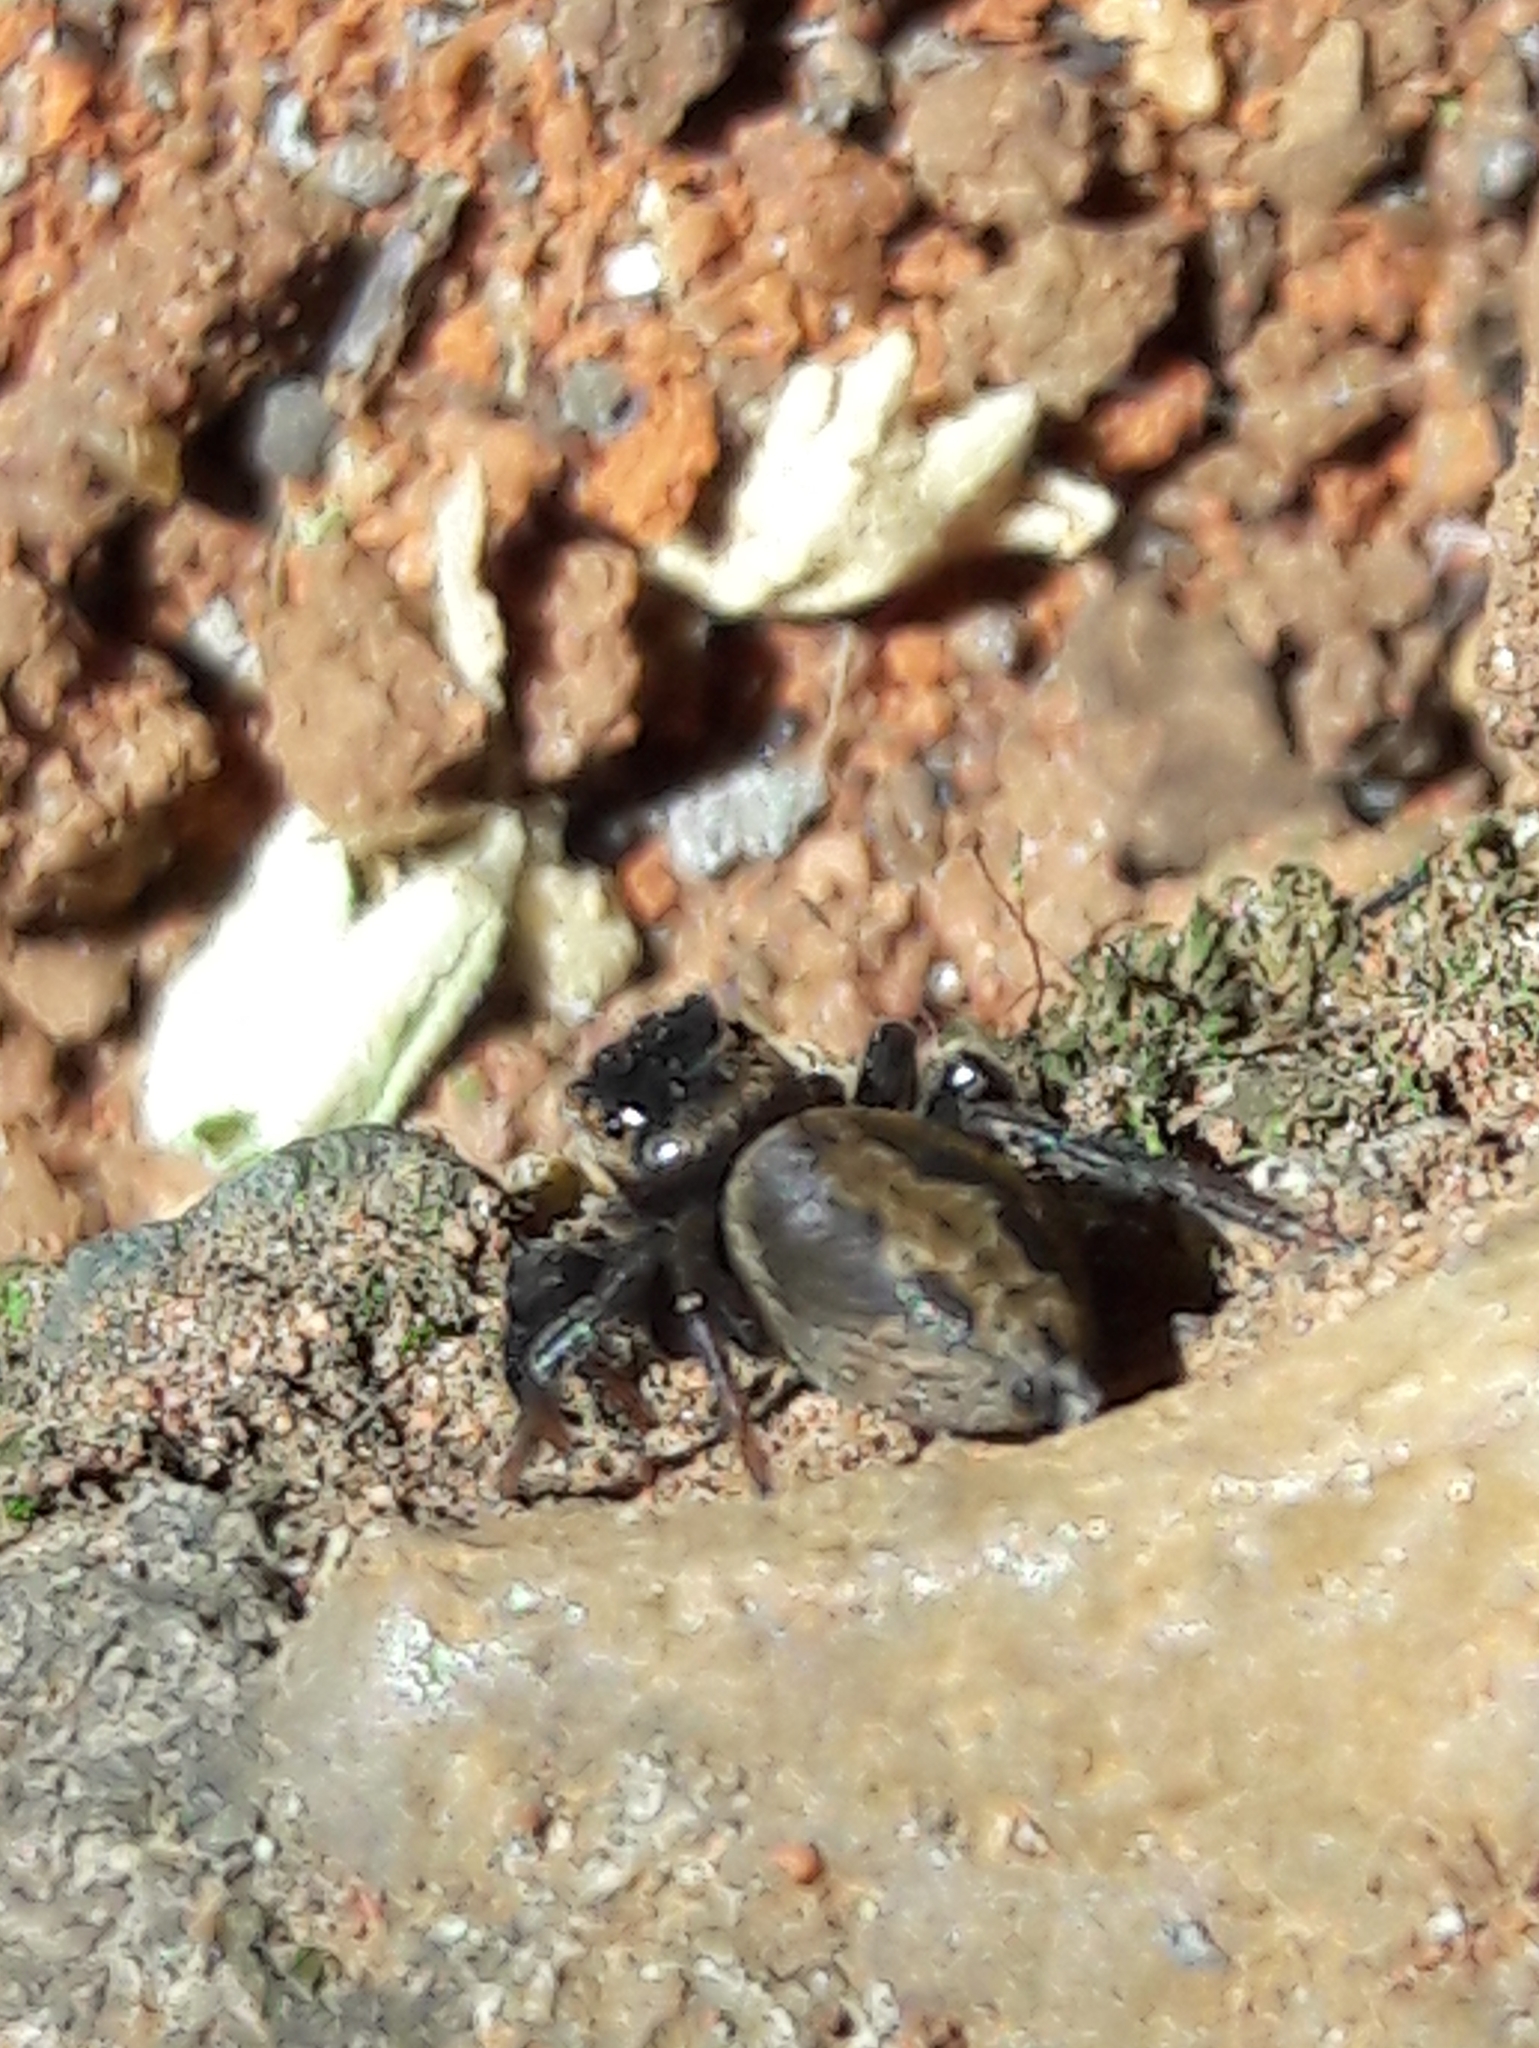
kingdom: Animalia
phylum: Arthropoda
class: Arachnida
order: Araneae
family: Salticidae
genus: Hasarius
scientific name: Hasarius adansoni
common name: Jumping spider
